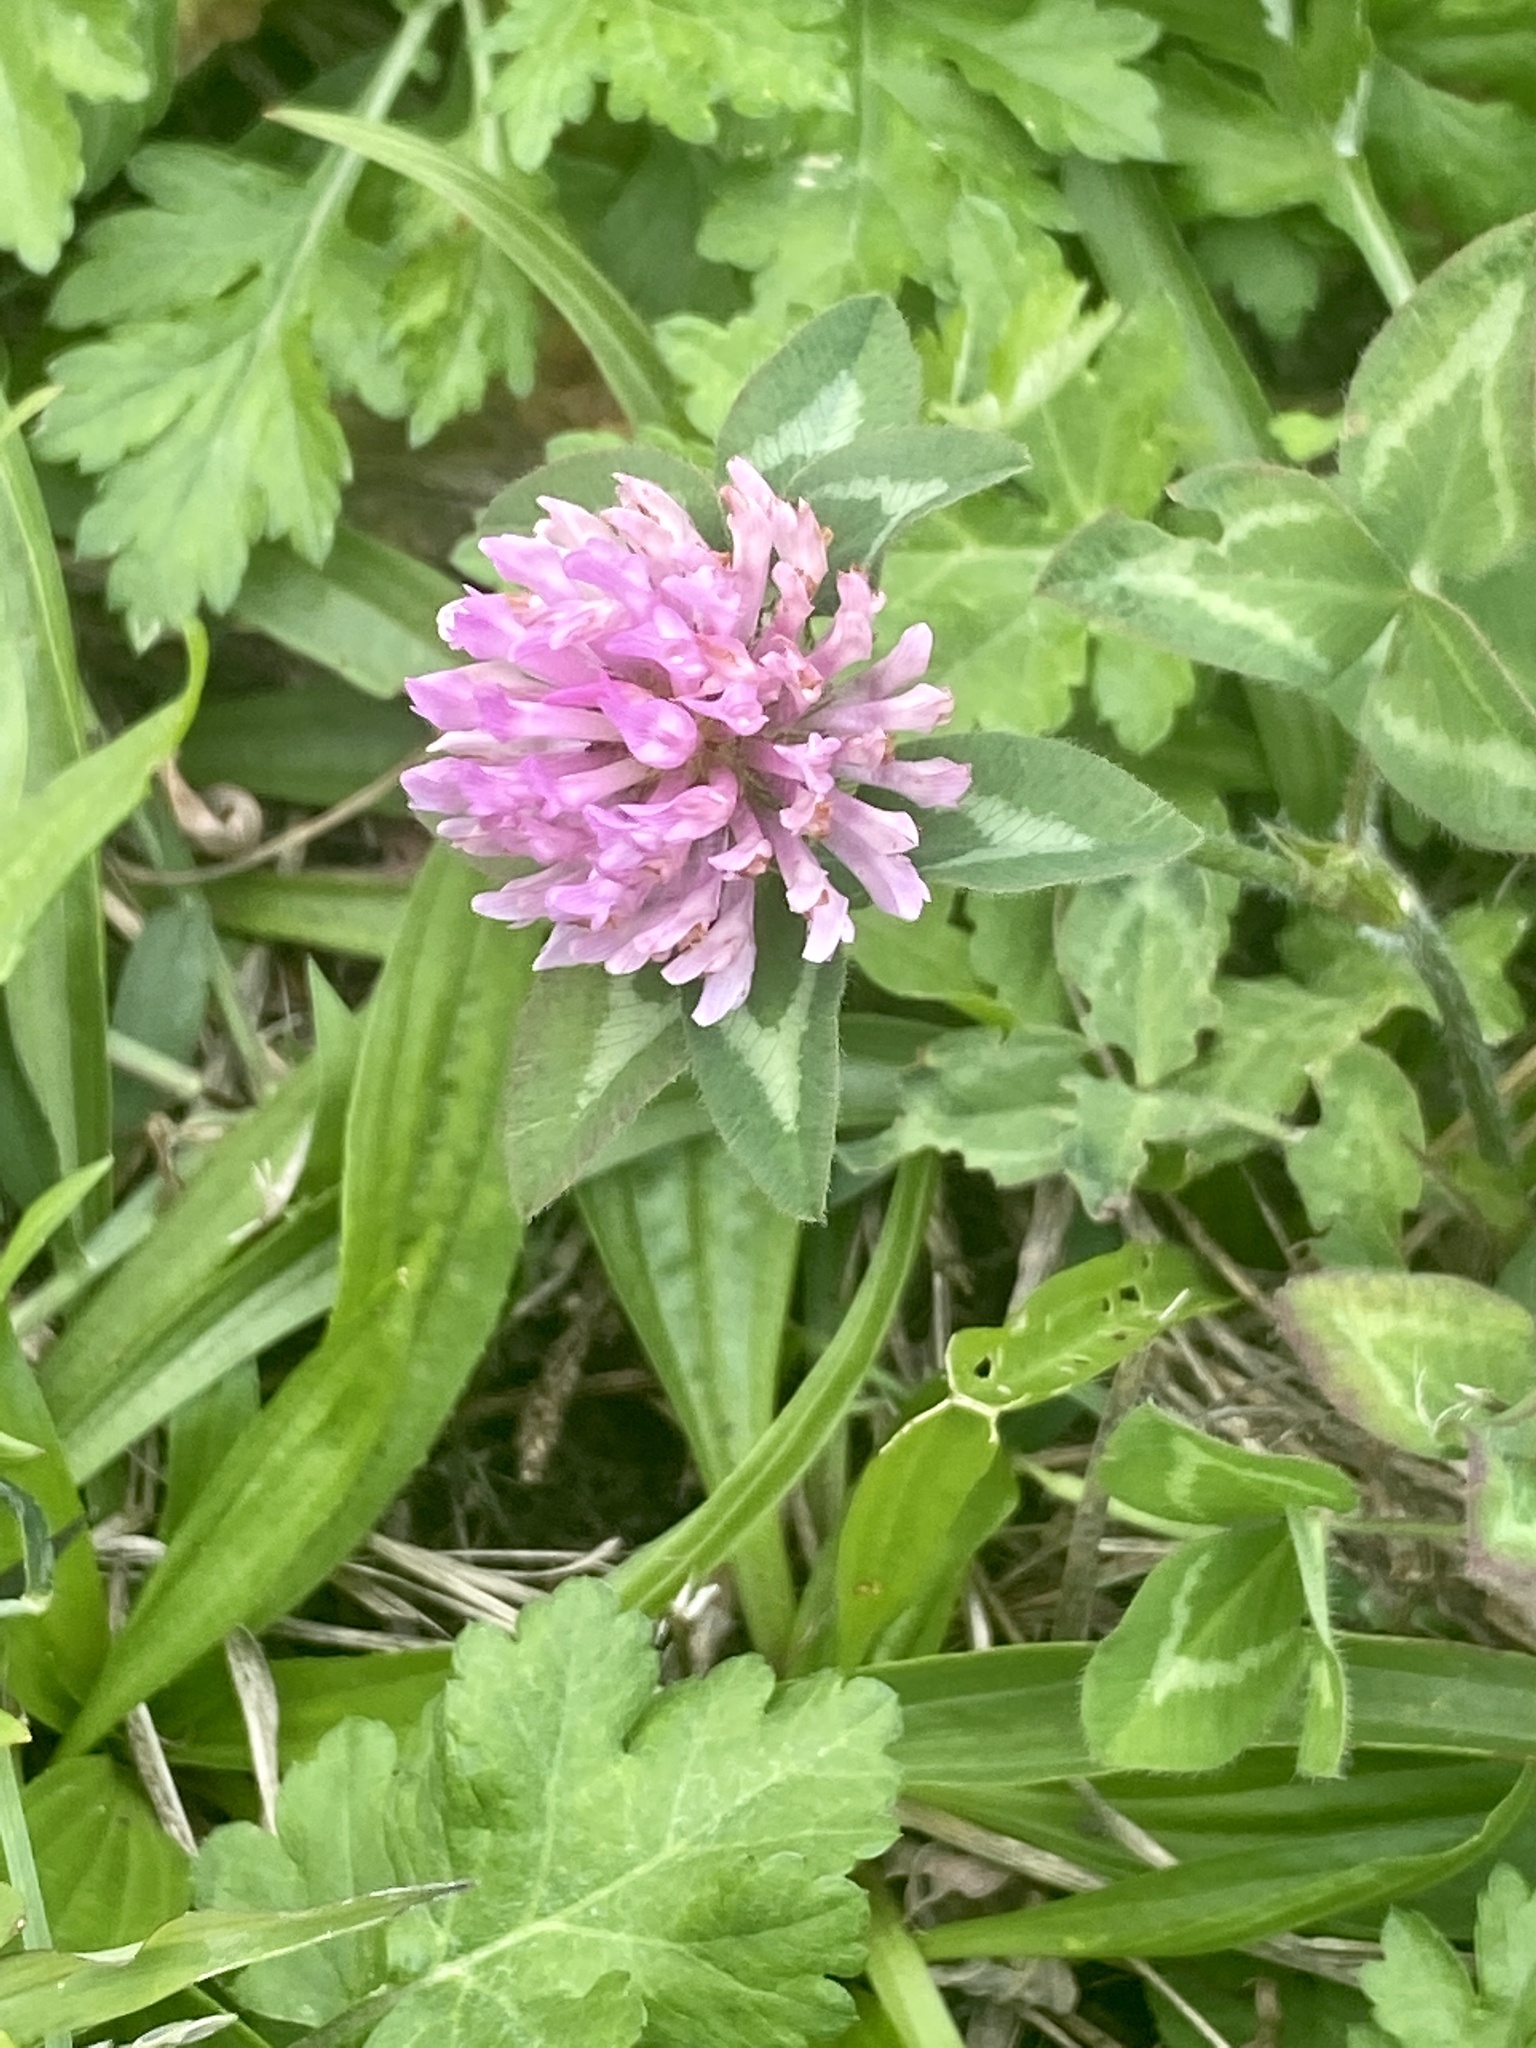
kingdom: Plantae
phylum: Tracheophyta
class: Magnoliopsida
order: Fabales
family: Fabaceae
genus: Trifolium
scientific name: Trifolium pratense
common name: Red clover
